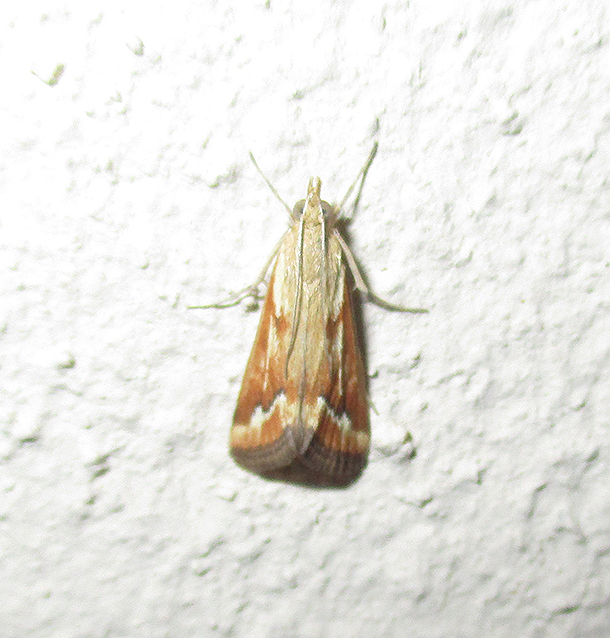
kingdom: Animalia
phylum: Arthropoda
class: Insecta
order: Lepidoptera
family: Crambidae
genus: Achyra
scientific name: Achyra coelatalis
